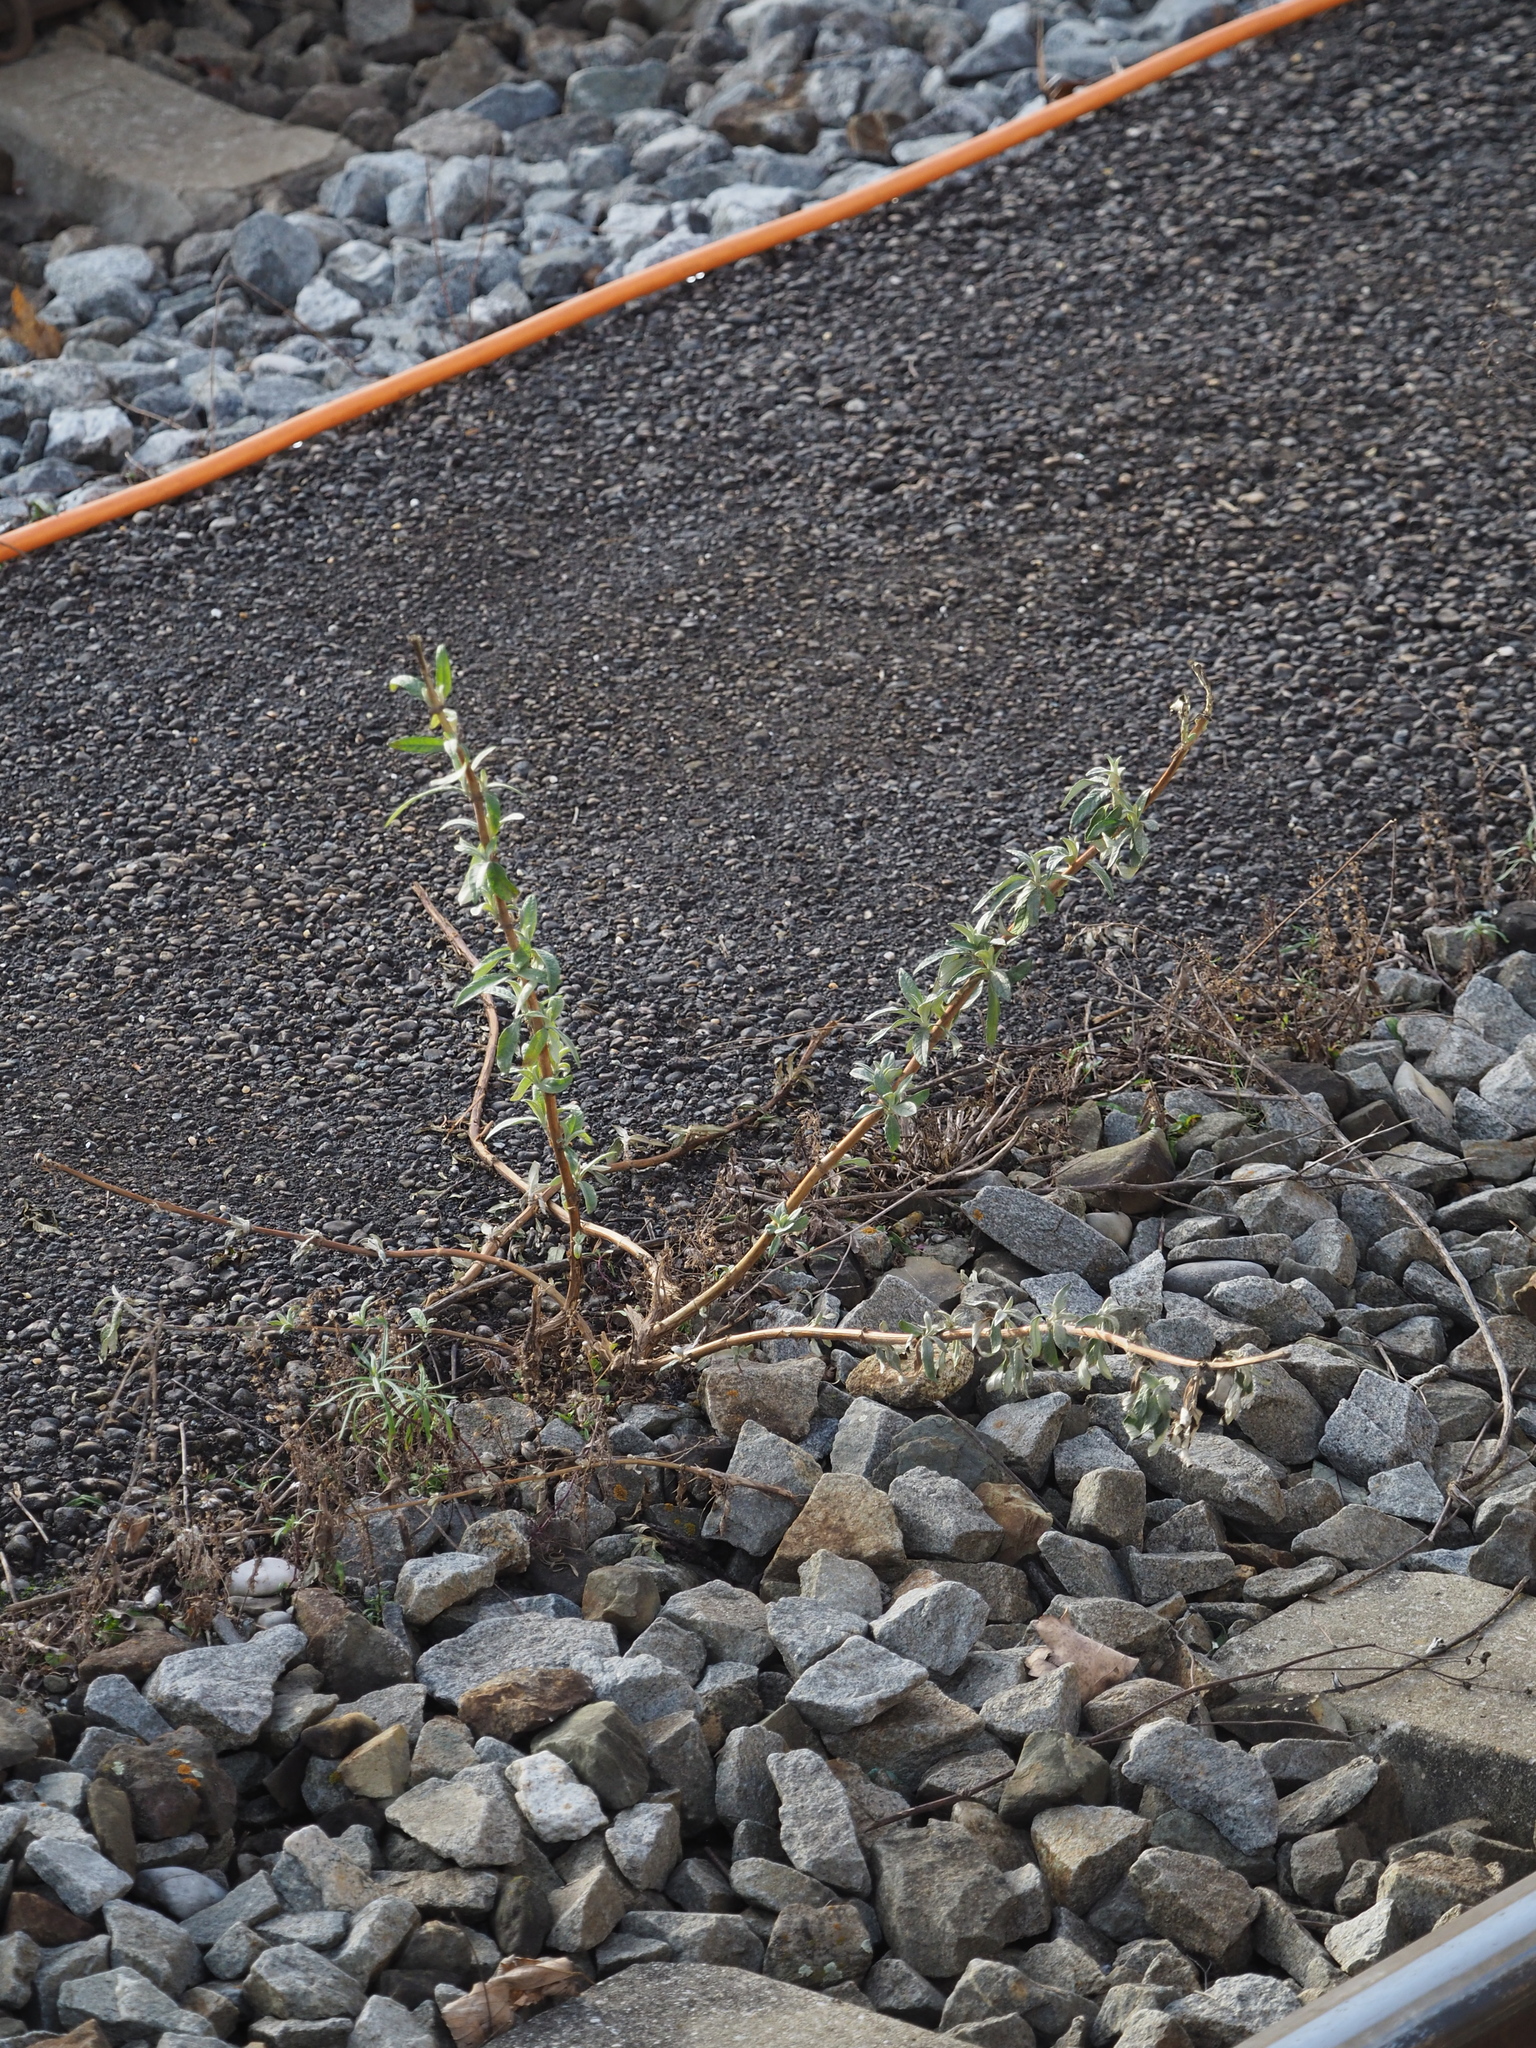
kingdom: Plantae
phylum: Tracheophyta
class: Magnoliopsida
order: Lamiales
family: Scrophulariaceae
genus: Buddleja
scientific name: Buddleja davidii
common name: Butterfly-bush
